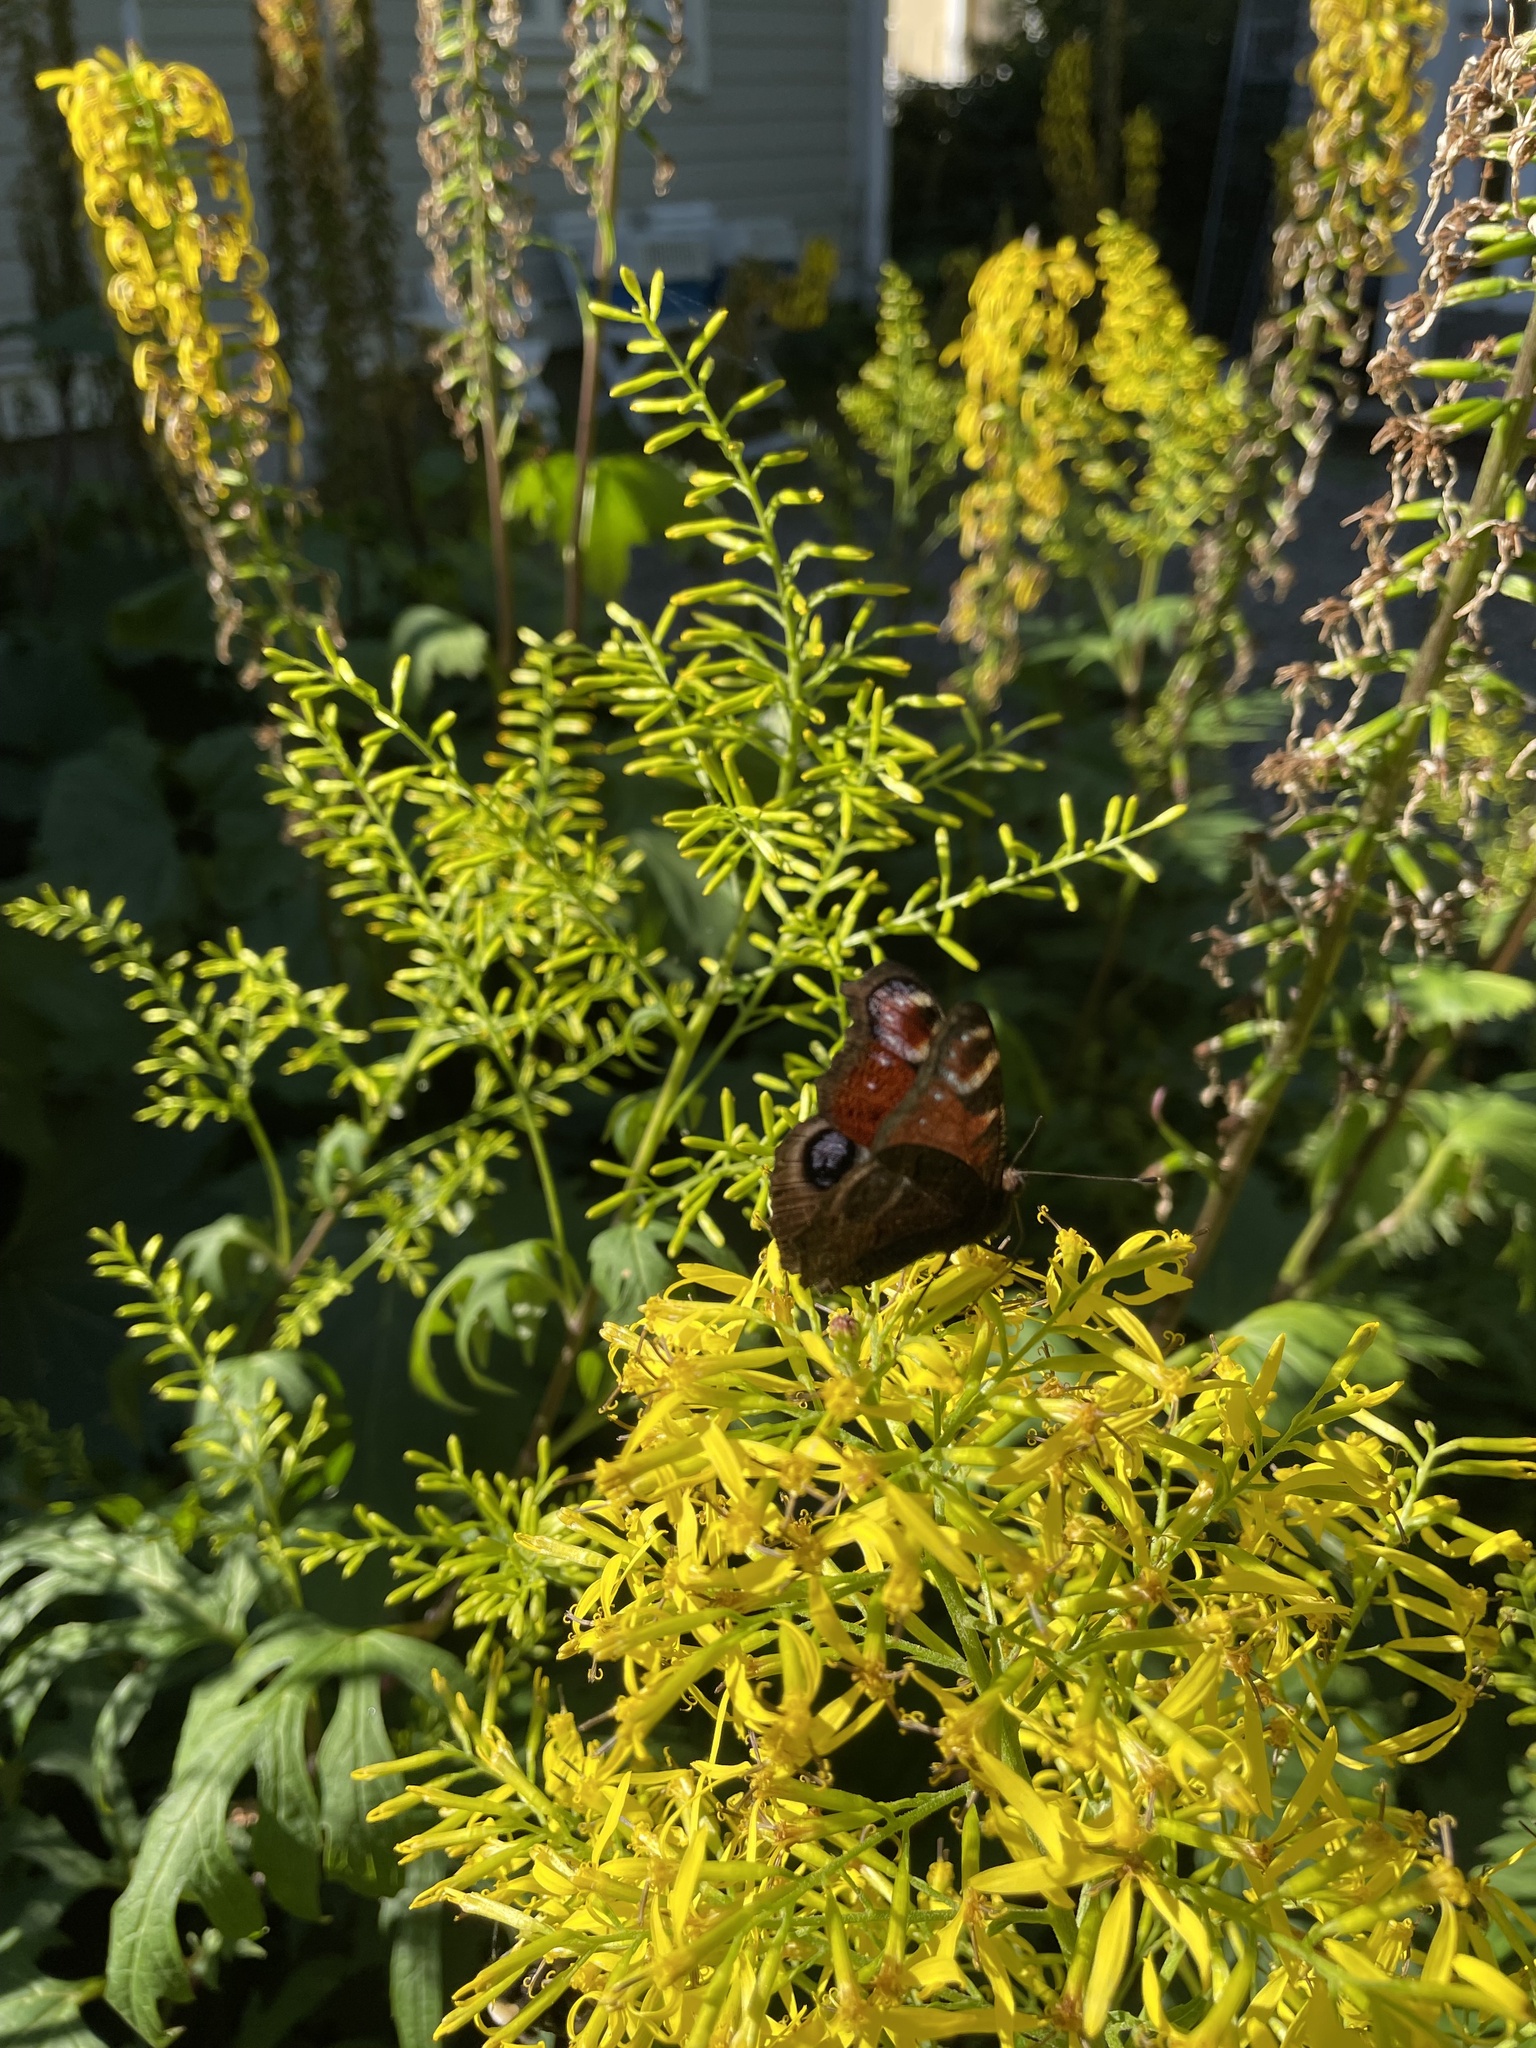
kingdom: Animalia
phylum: Arthropoda
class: Insecta
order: Lepidoptera
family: Nymphalidae
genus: Aglais
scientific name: Aglais io
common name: Peacock
